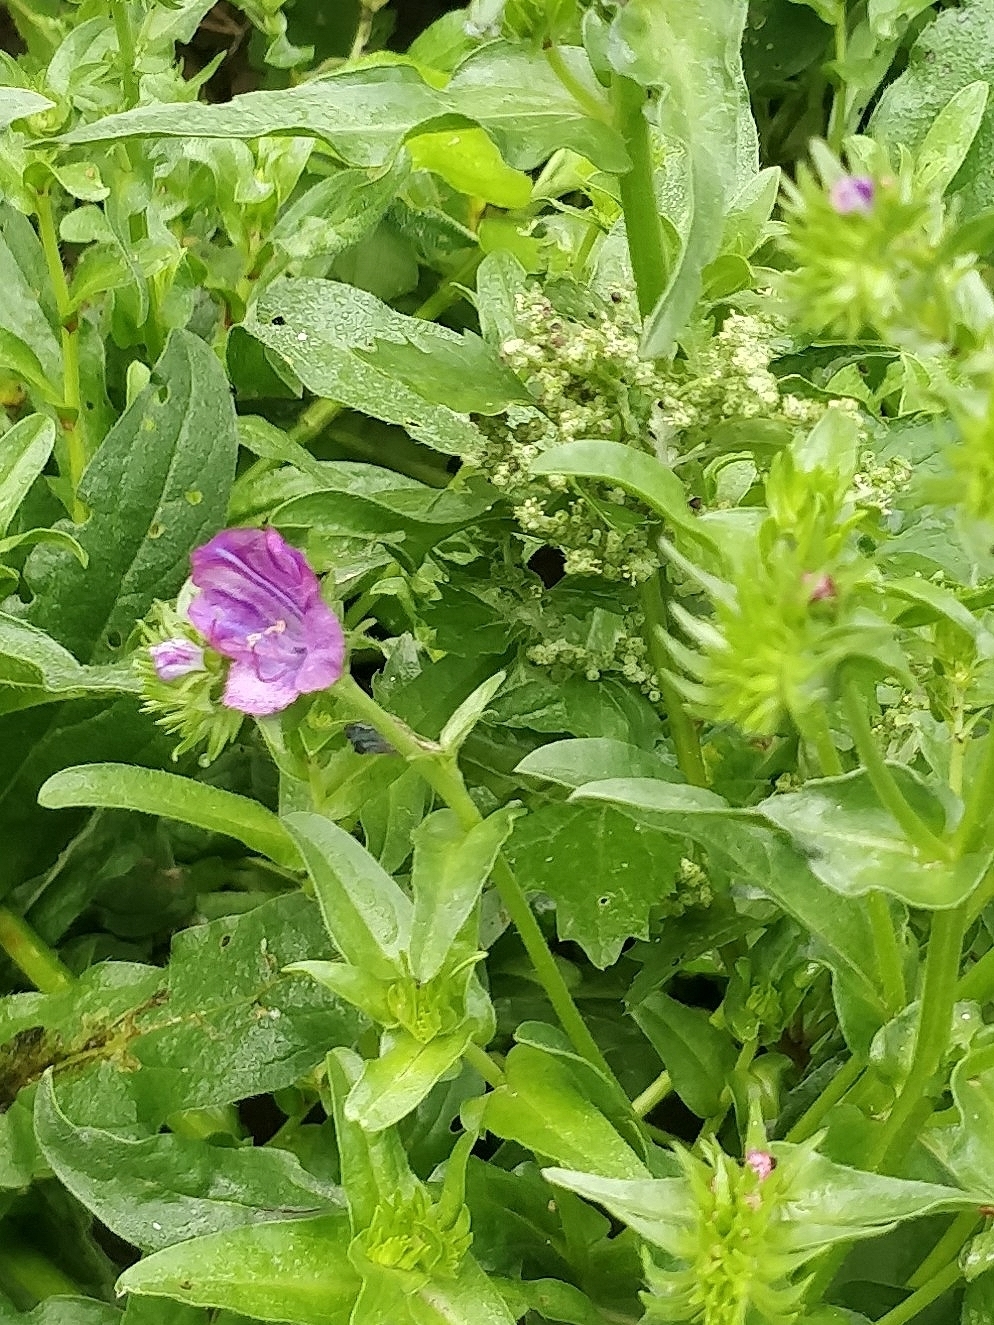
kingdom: Plantae
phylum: Tracheophyta
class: Magnoliopsida
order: Boraginales
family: Boraginaceae
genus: Echium
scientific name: Echium plantagineum
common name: Purple viper's-bugloss
